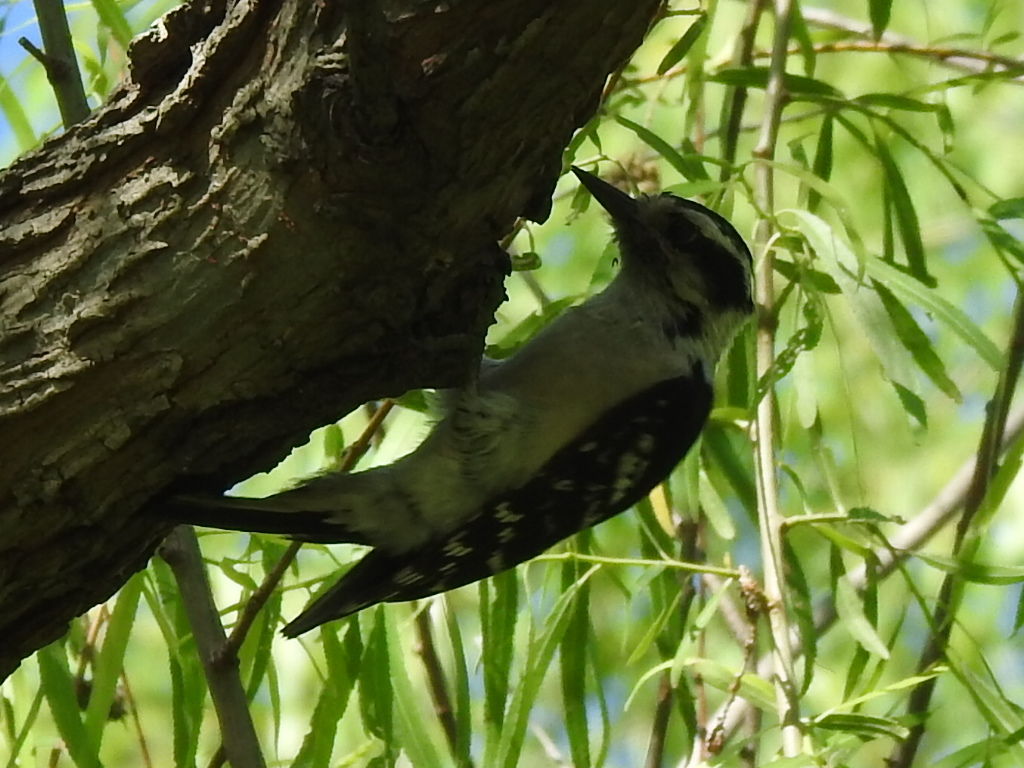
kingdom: Animalia
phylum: Chordata
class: Aves
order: Piciformes
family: Picidae
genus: Dryobates
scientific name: Dryobates pubescens
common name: Downy woodpecker
